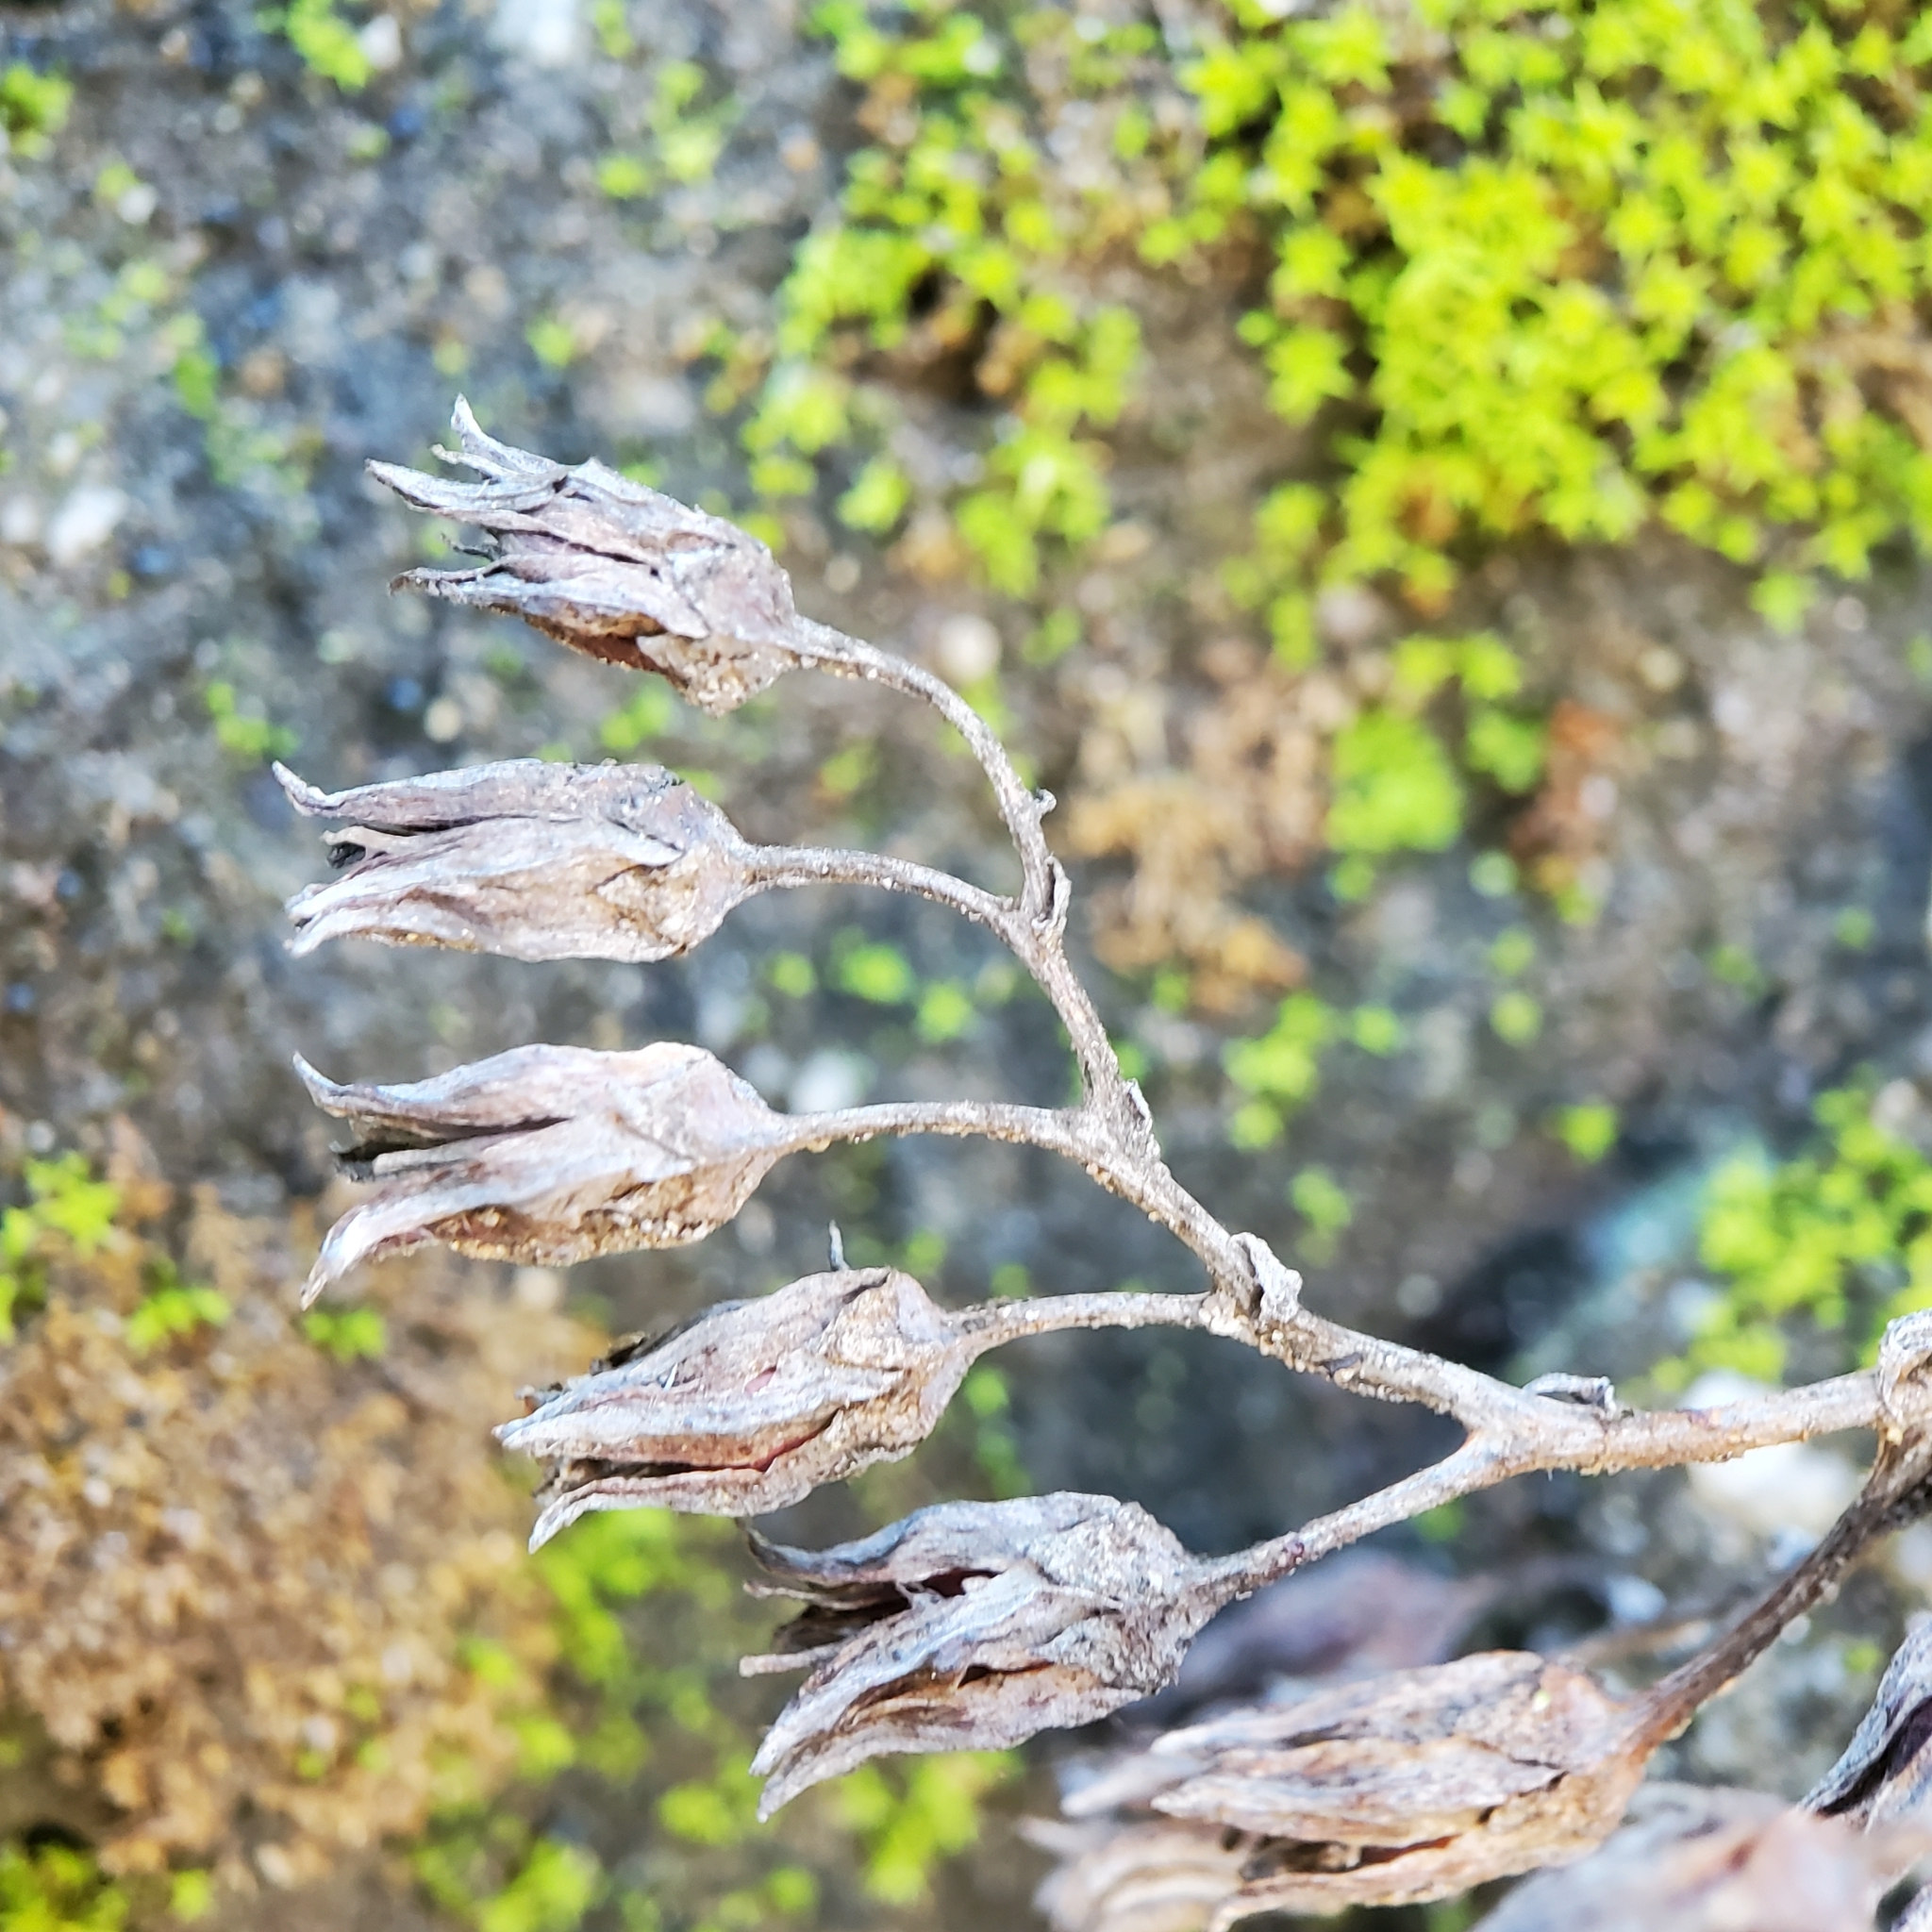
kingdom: Plantae
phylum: Tracheophyta
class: Magnoliopsida
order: Saxifragales
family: Crassulaceae
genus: Dudleya
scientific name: Dudleya lanceolata
